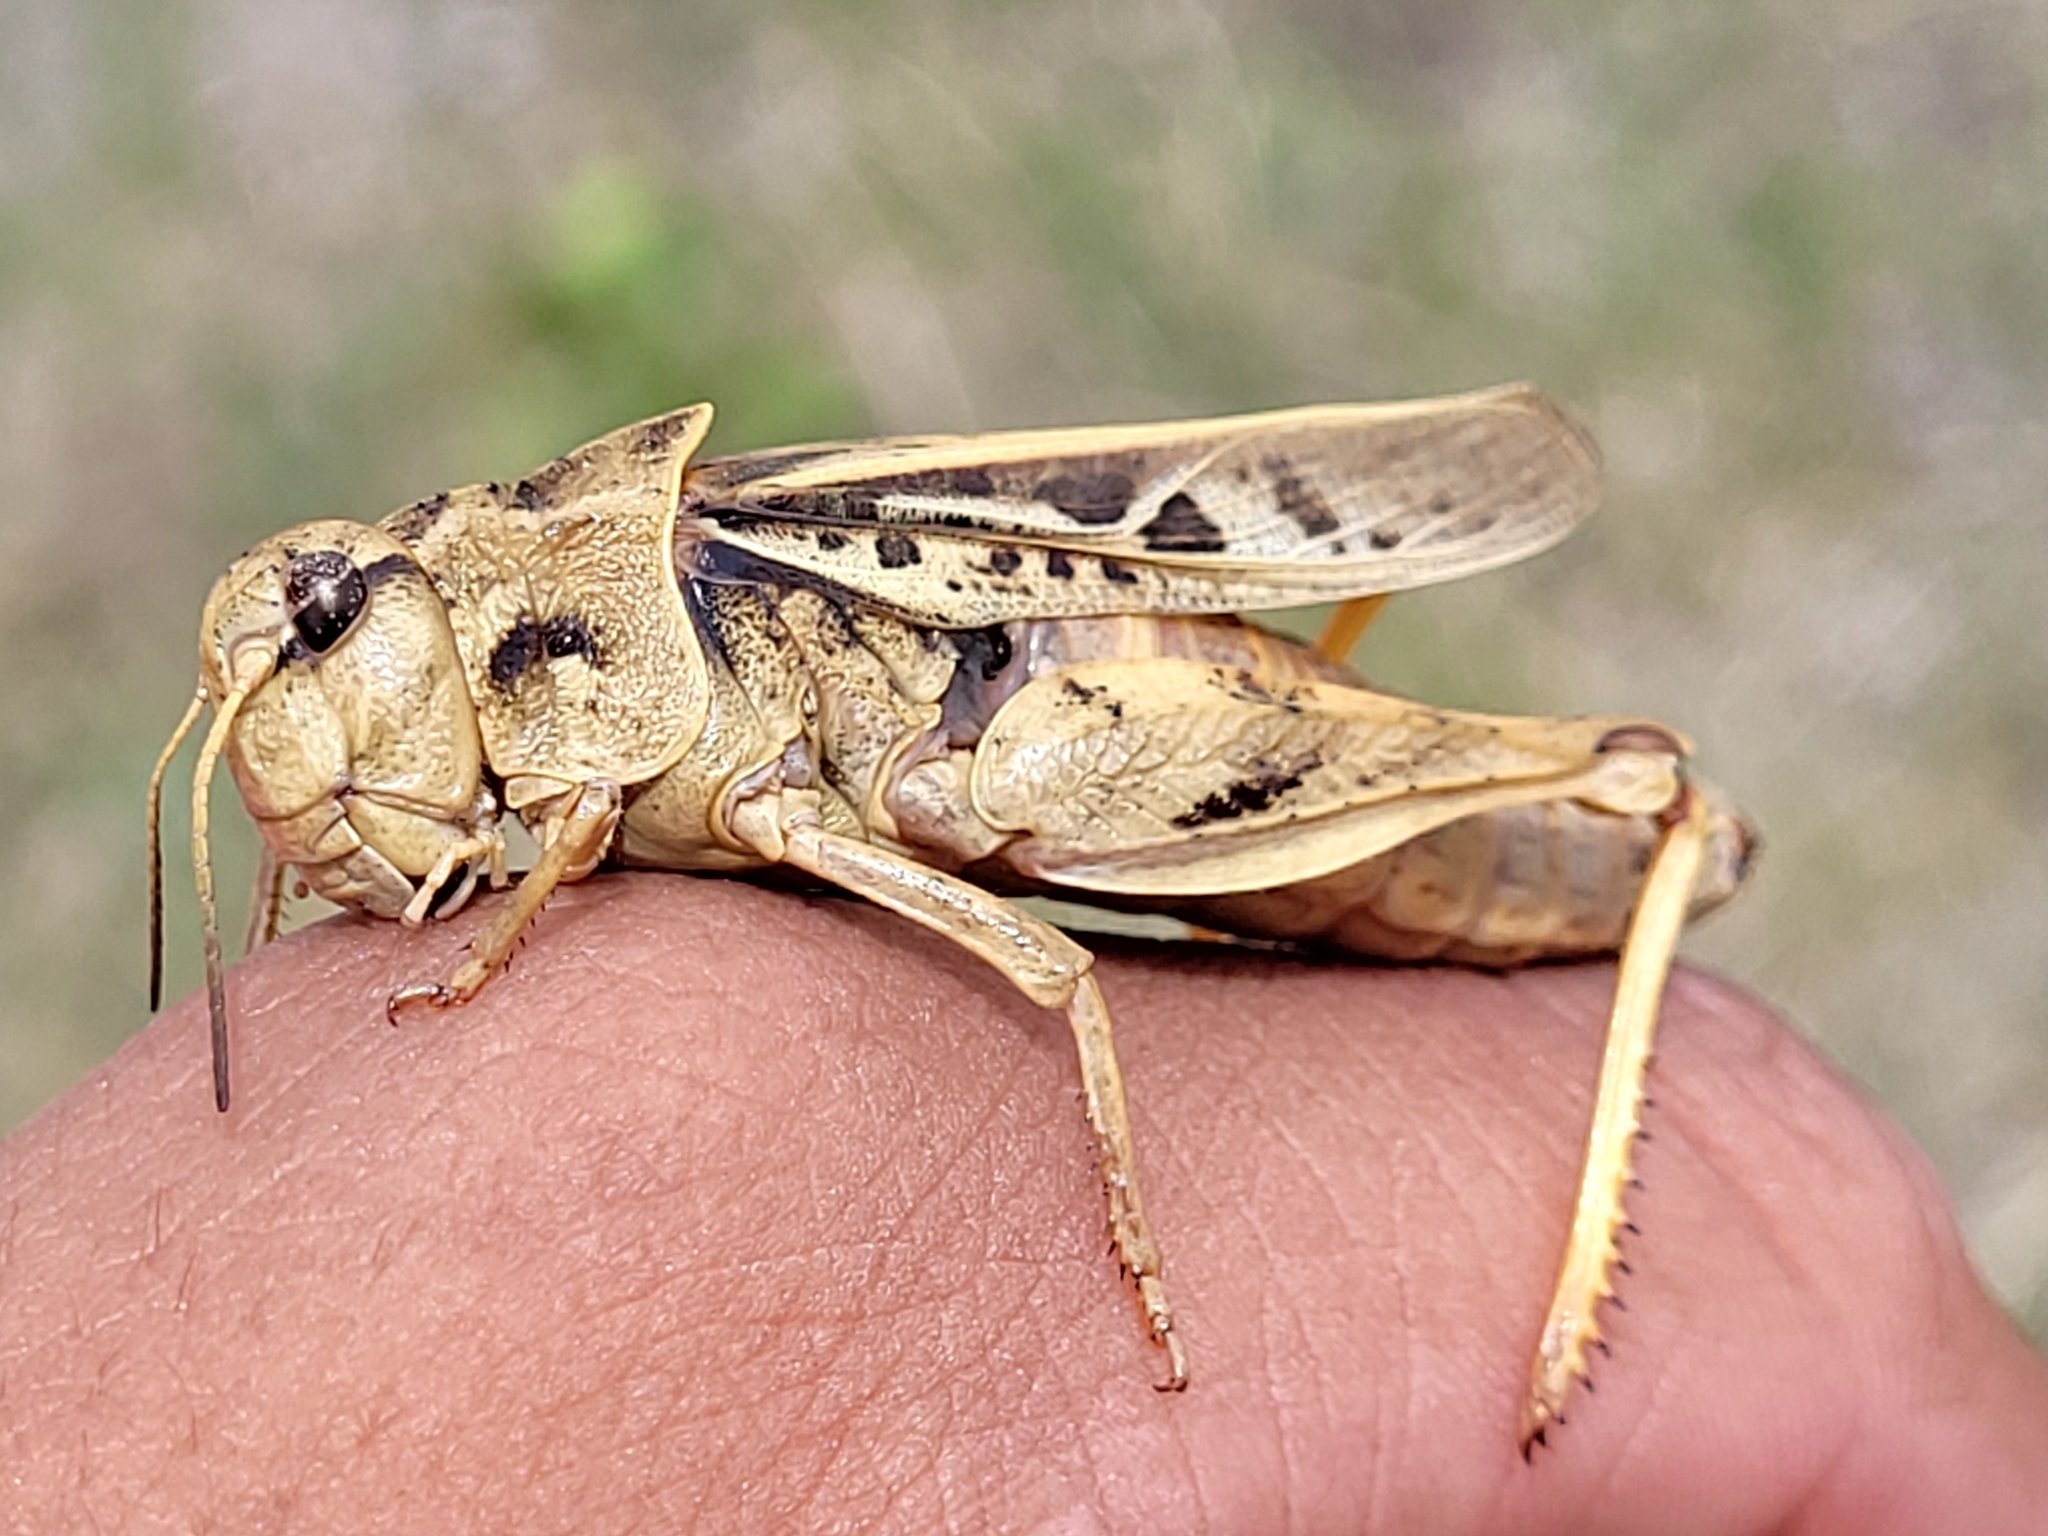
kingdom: Animalia
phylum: Arthropoda
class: Insecta
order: Orthoptera
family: Acrididae
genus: Pardalophora
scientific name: Pardalophora apiculata
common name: Coral-winged locust
